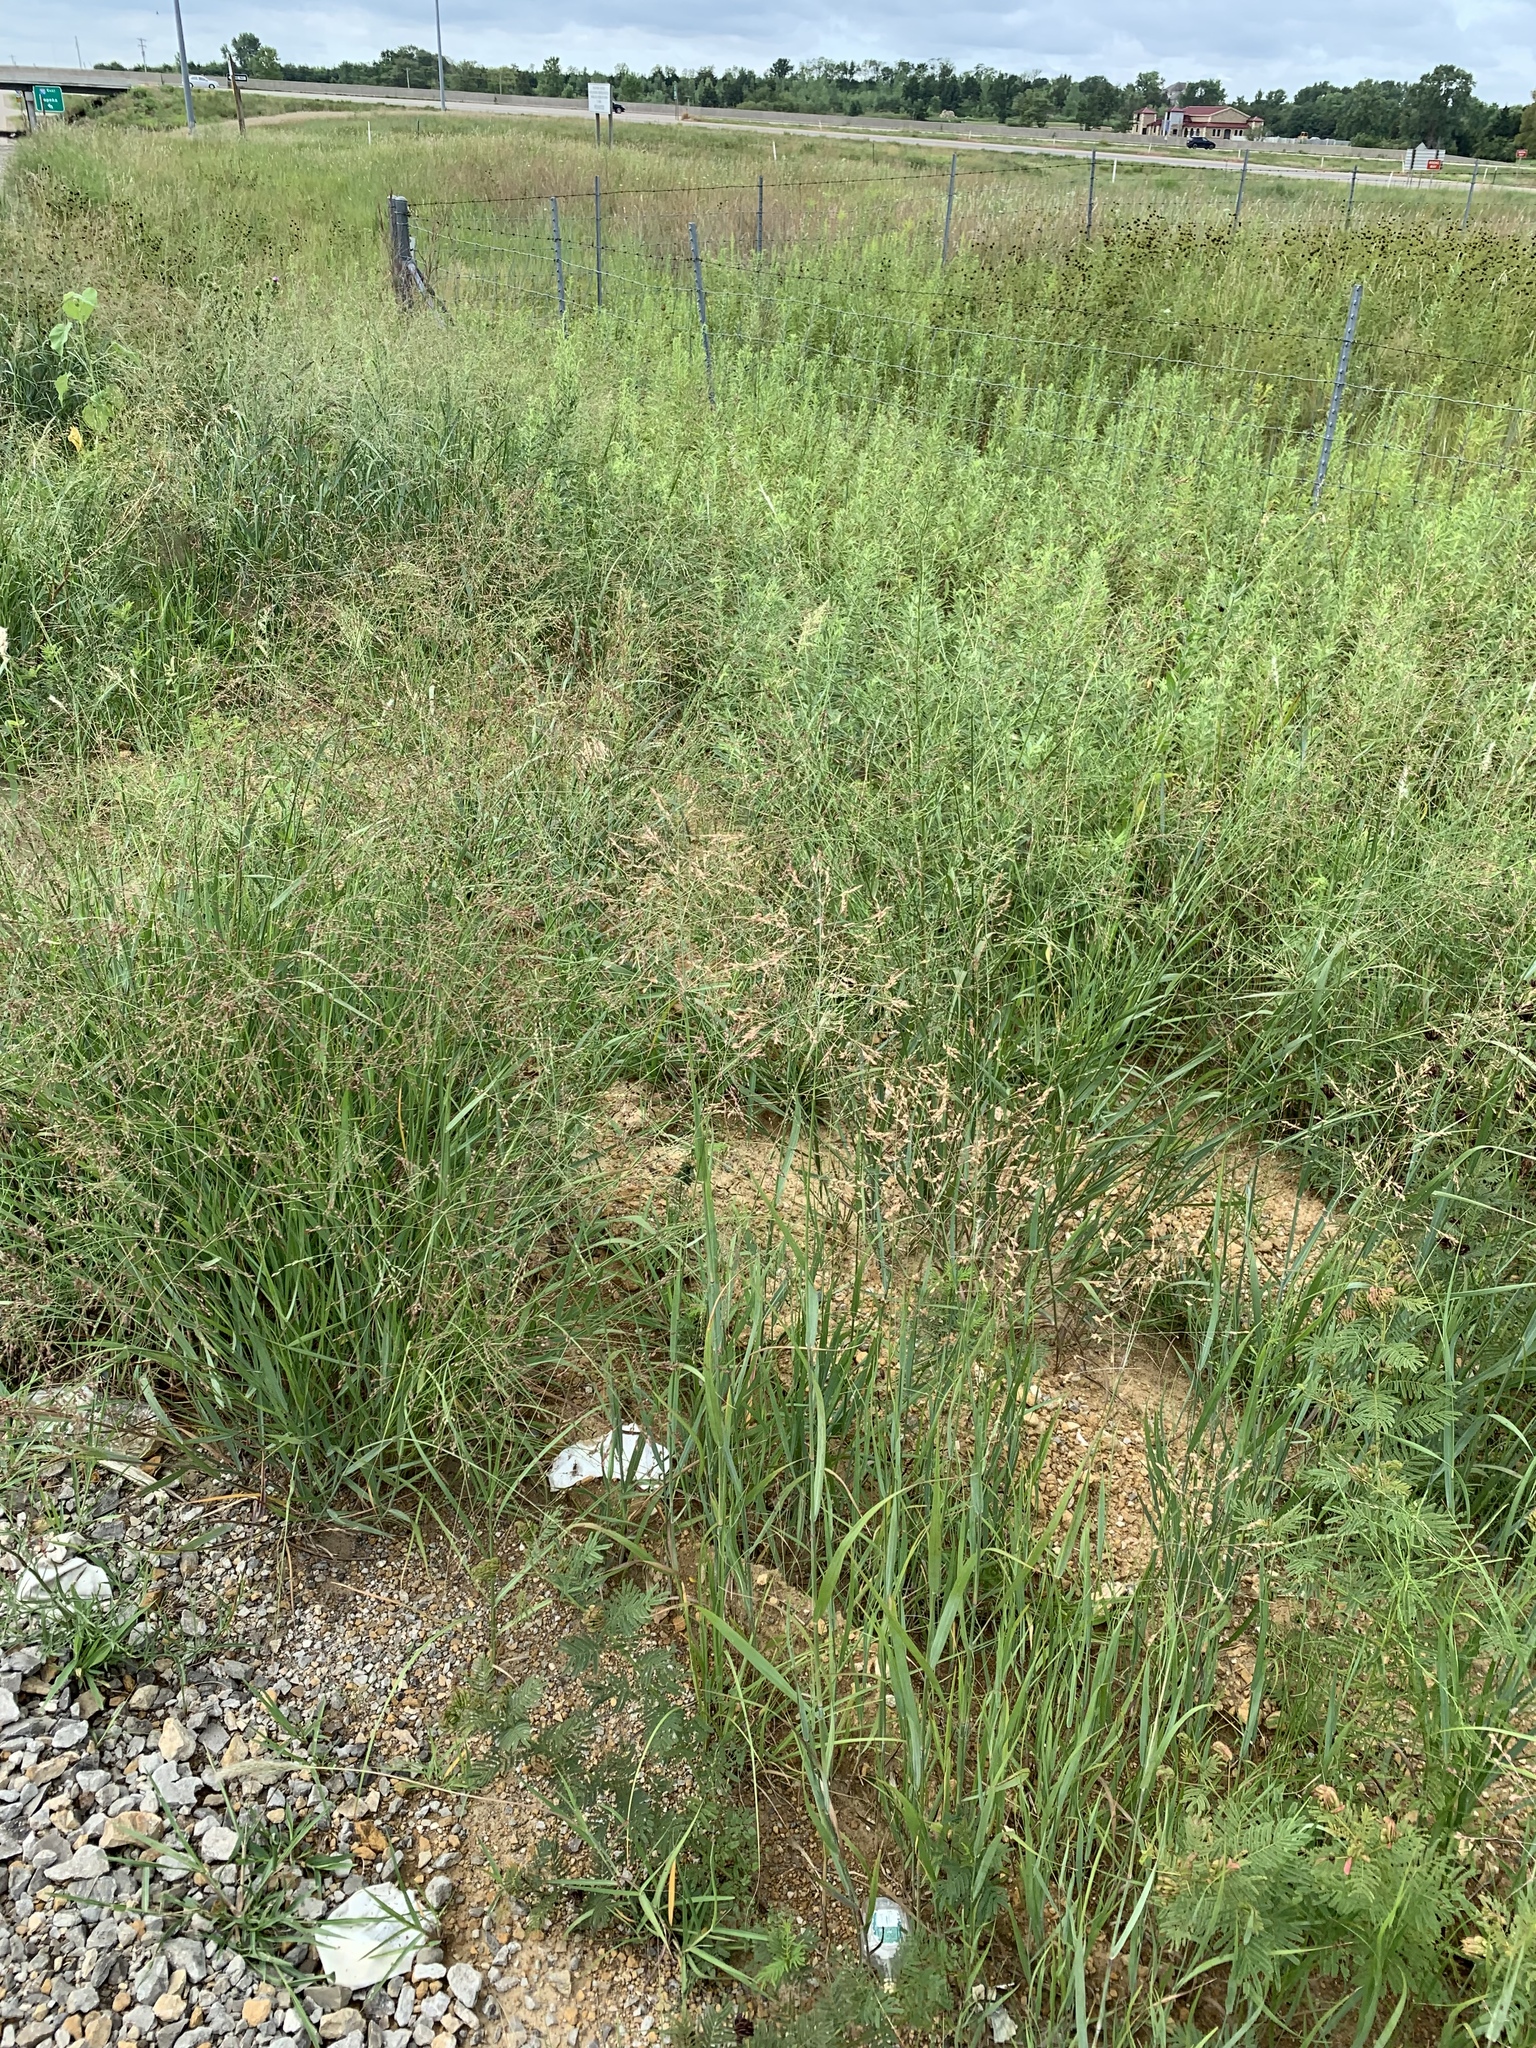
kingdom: Plantae
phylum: Tracheophyta
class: Liliopsida
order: Poales
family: Poaceae
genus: Panicum
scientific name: Panicum virgatum
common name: Switchgrass
